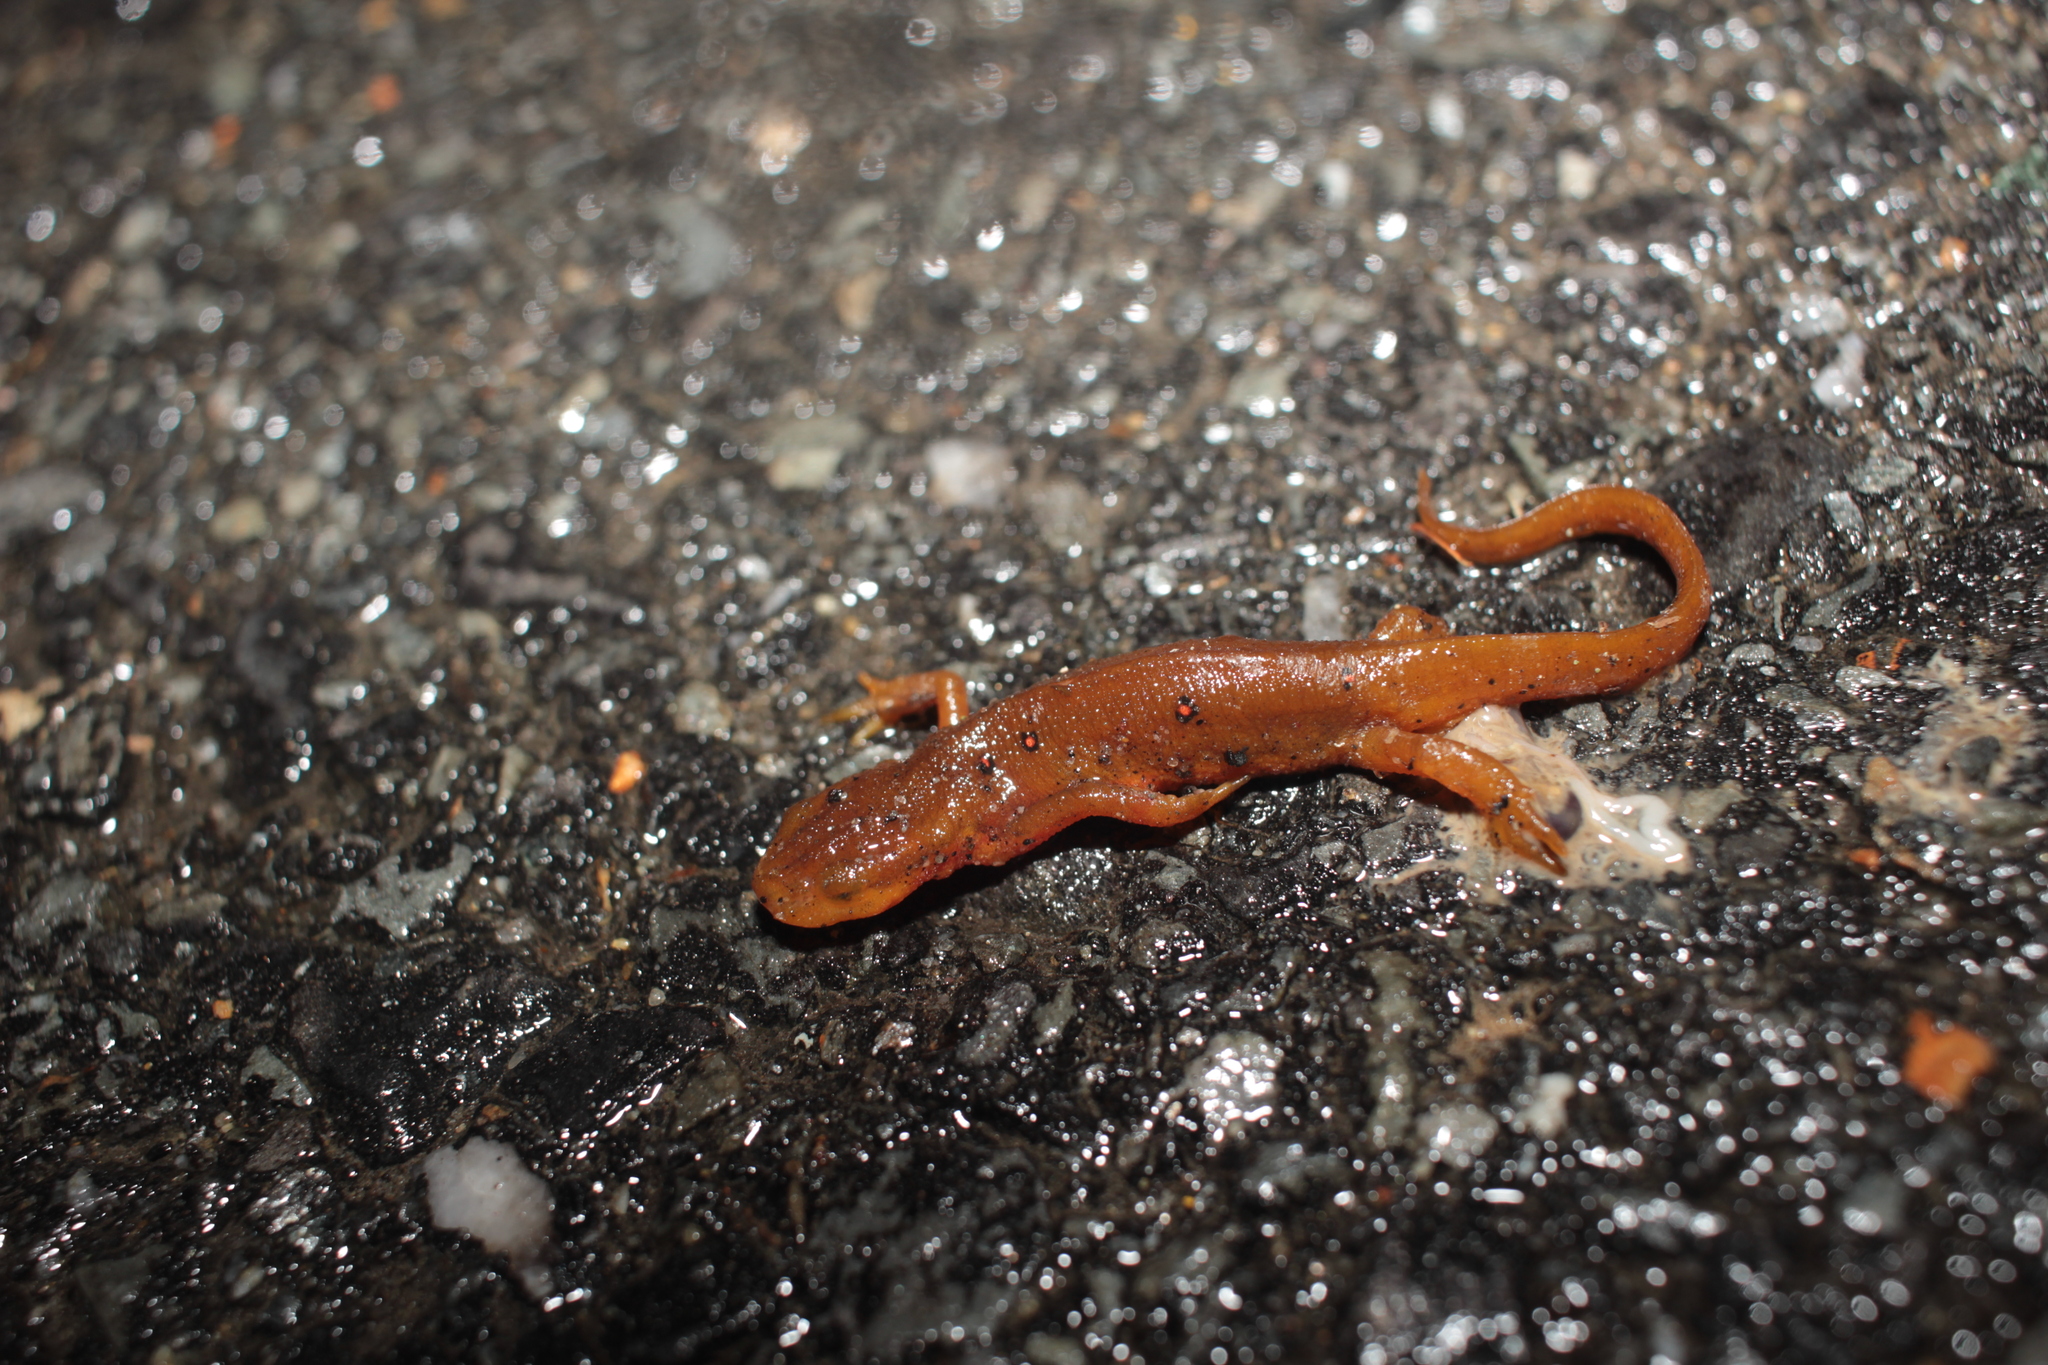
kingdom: Animalia
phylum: Chordata
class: Amphibia
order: Caudata
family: Salamandridae
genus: Notophthalmus
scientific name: Notophthalmus viridescens
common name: Eastern newt
